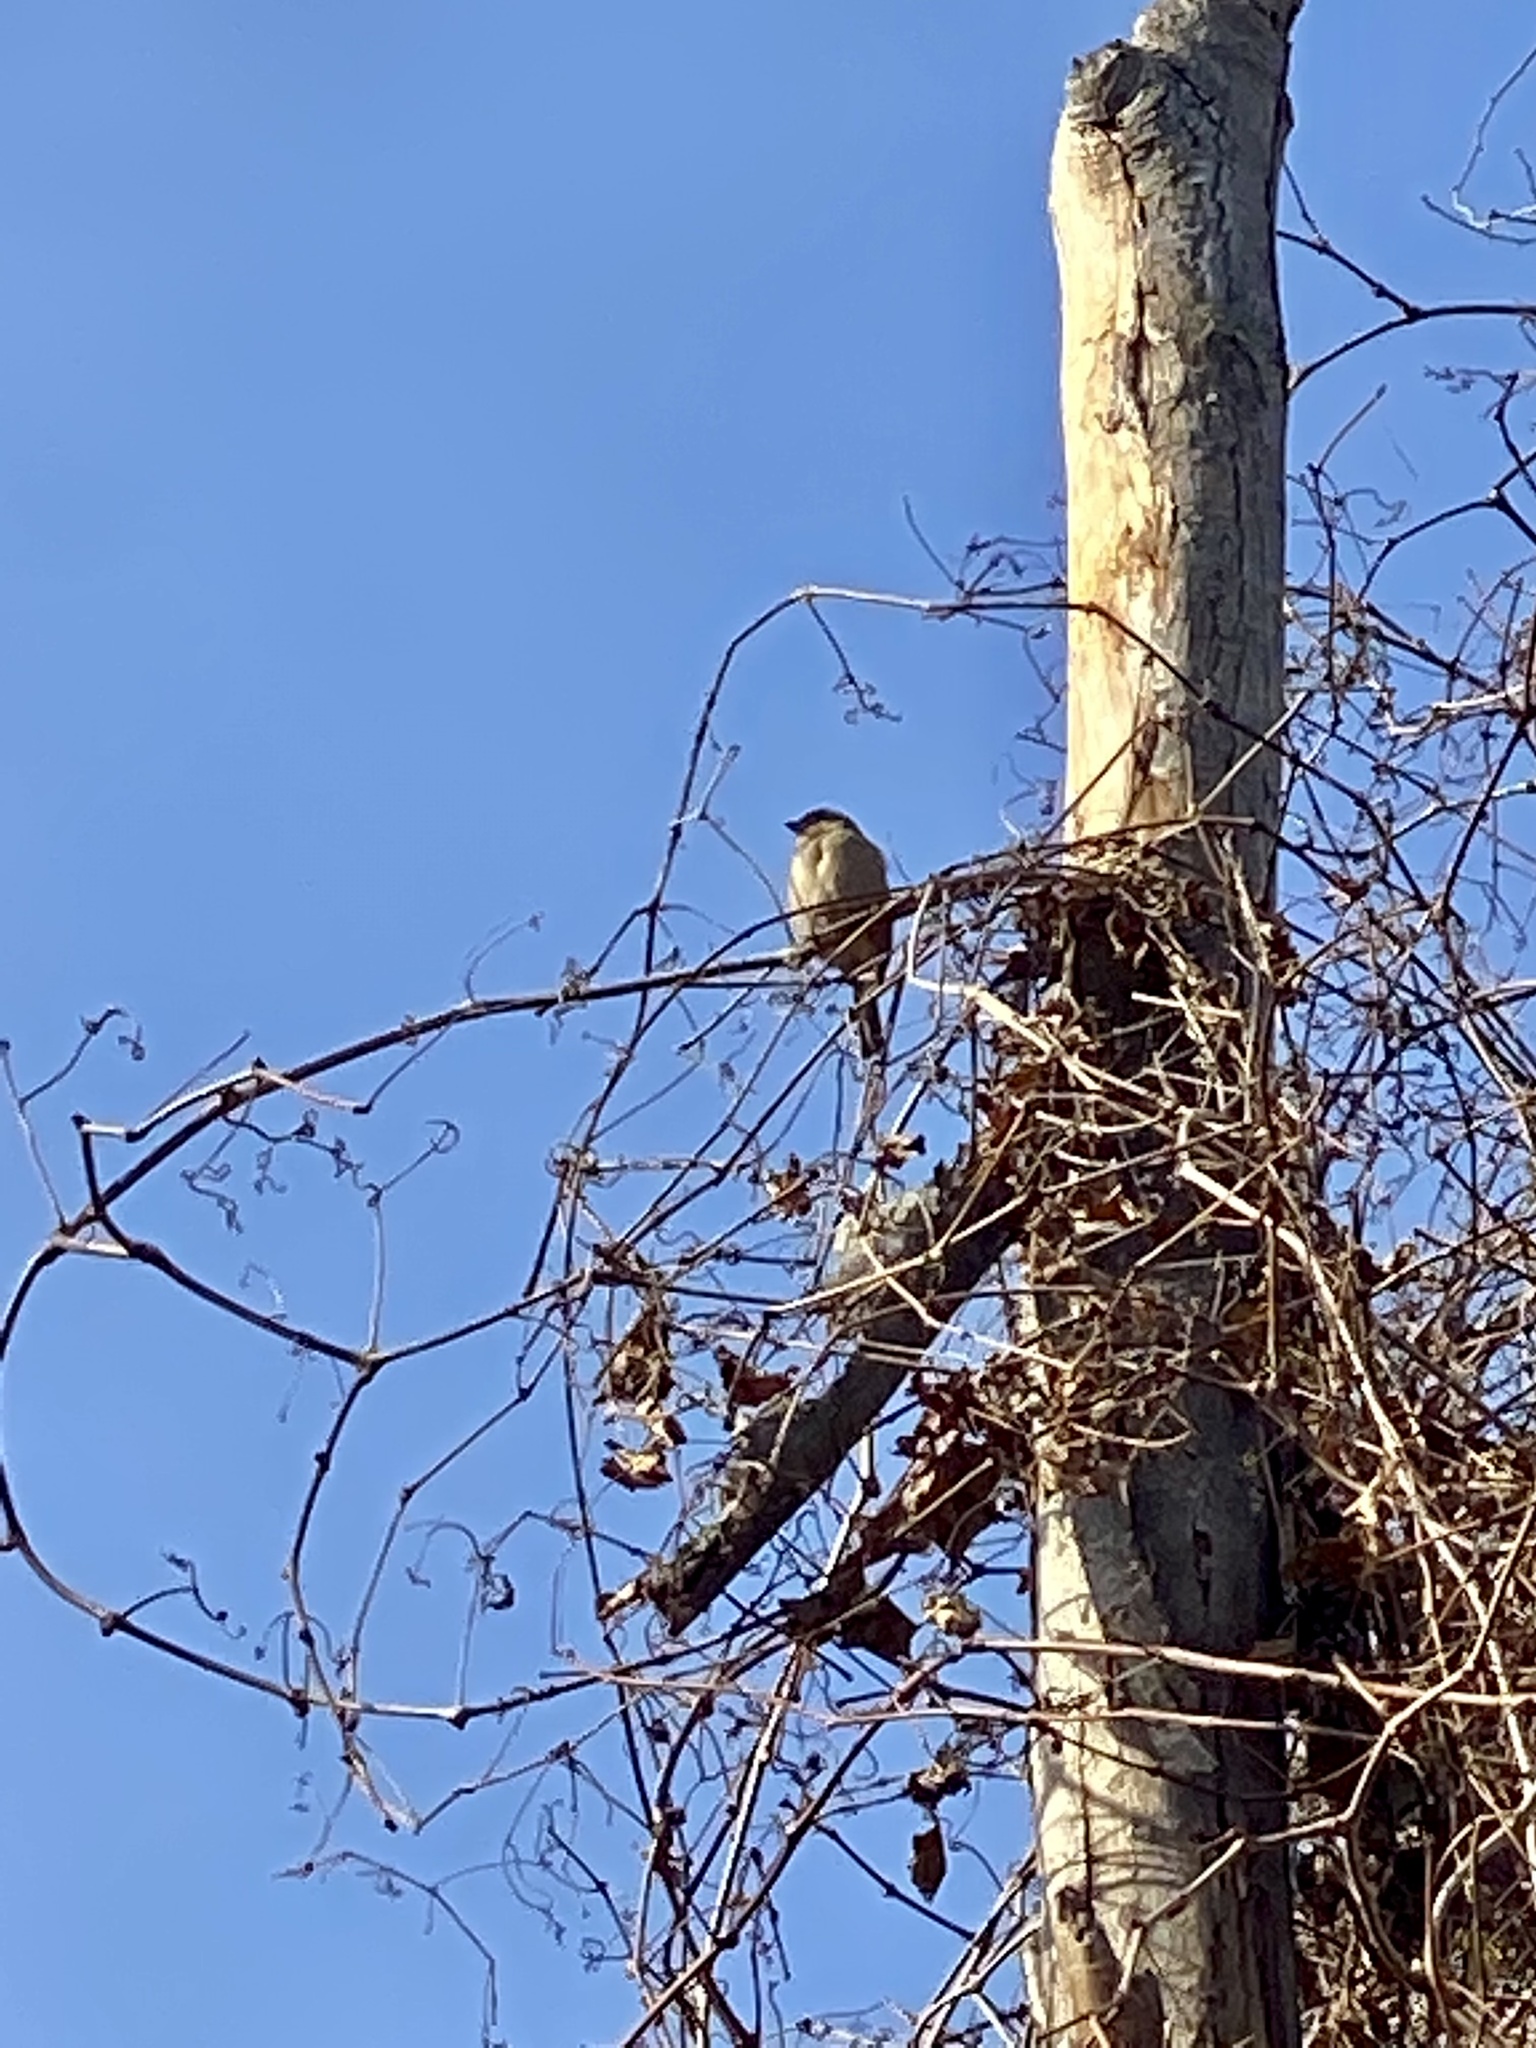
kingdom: Animalia
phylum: Chordata
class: Aves
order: Passeriformes
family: Passeridae
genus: Passer
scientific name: Passer domesticus
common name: House sparrow
